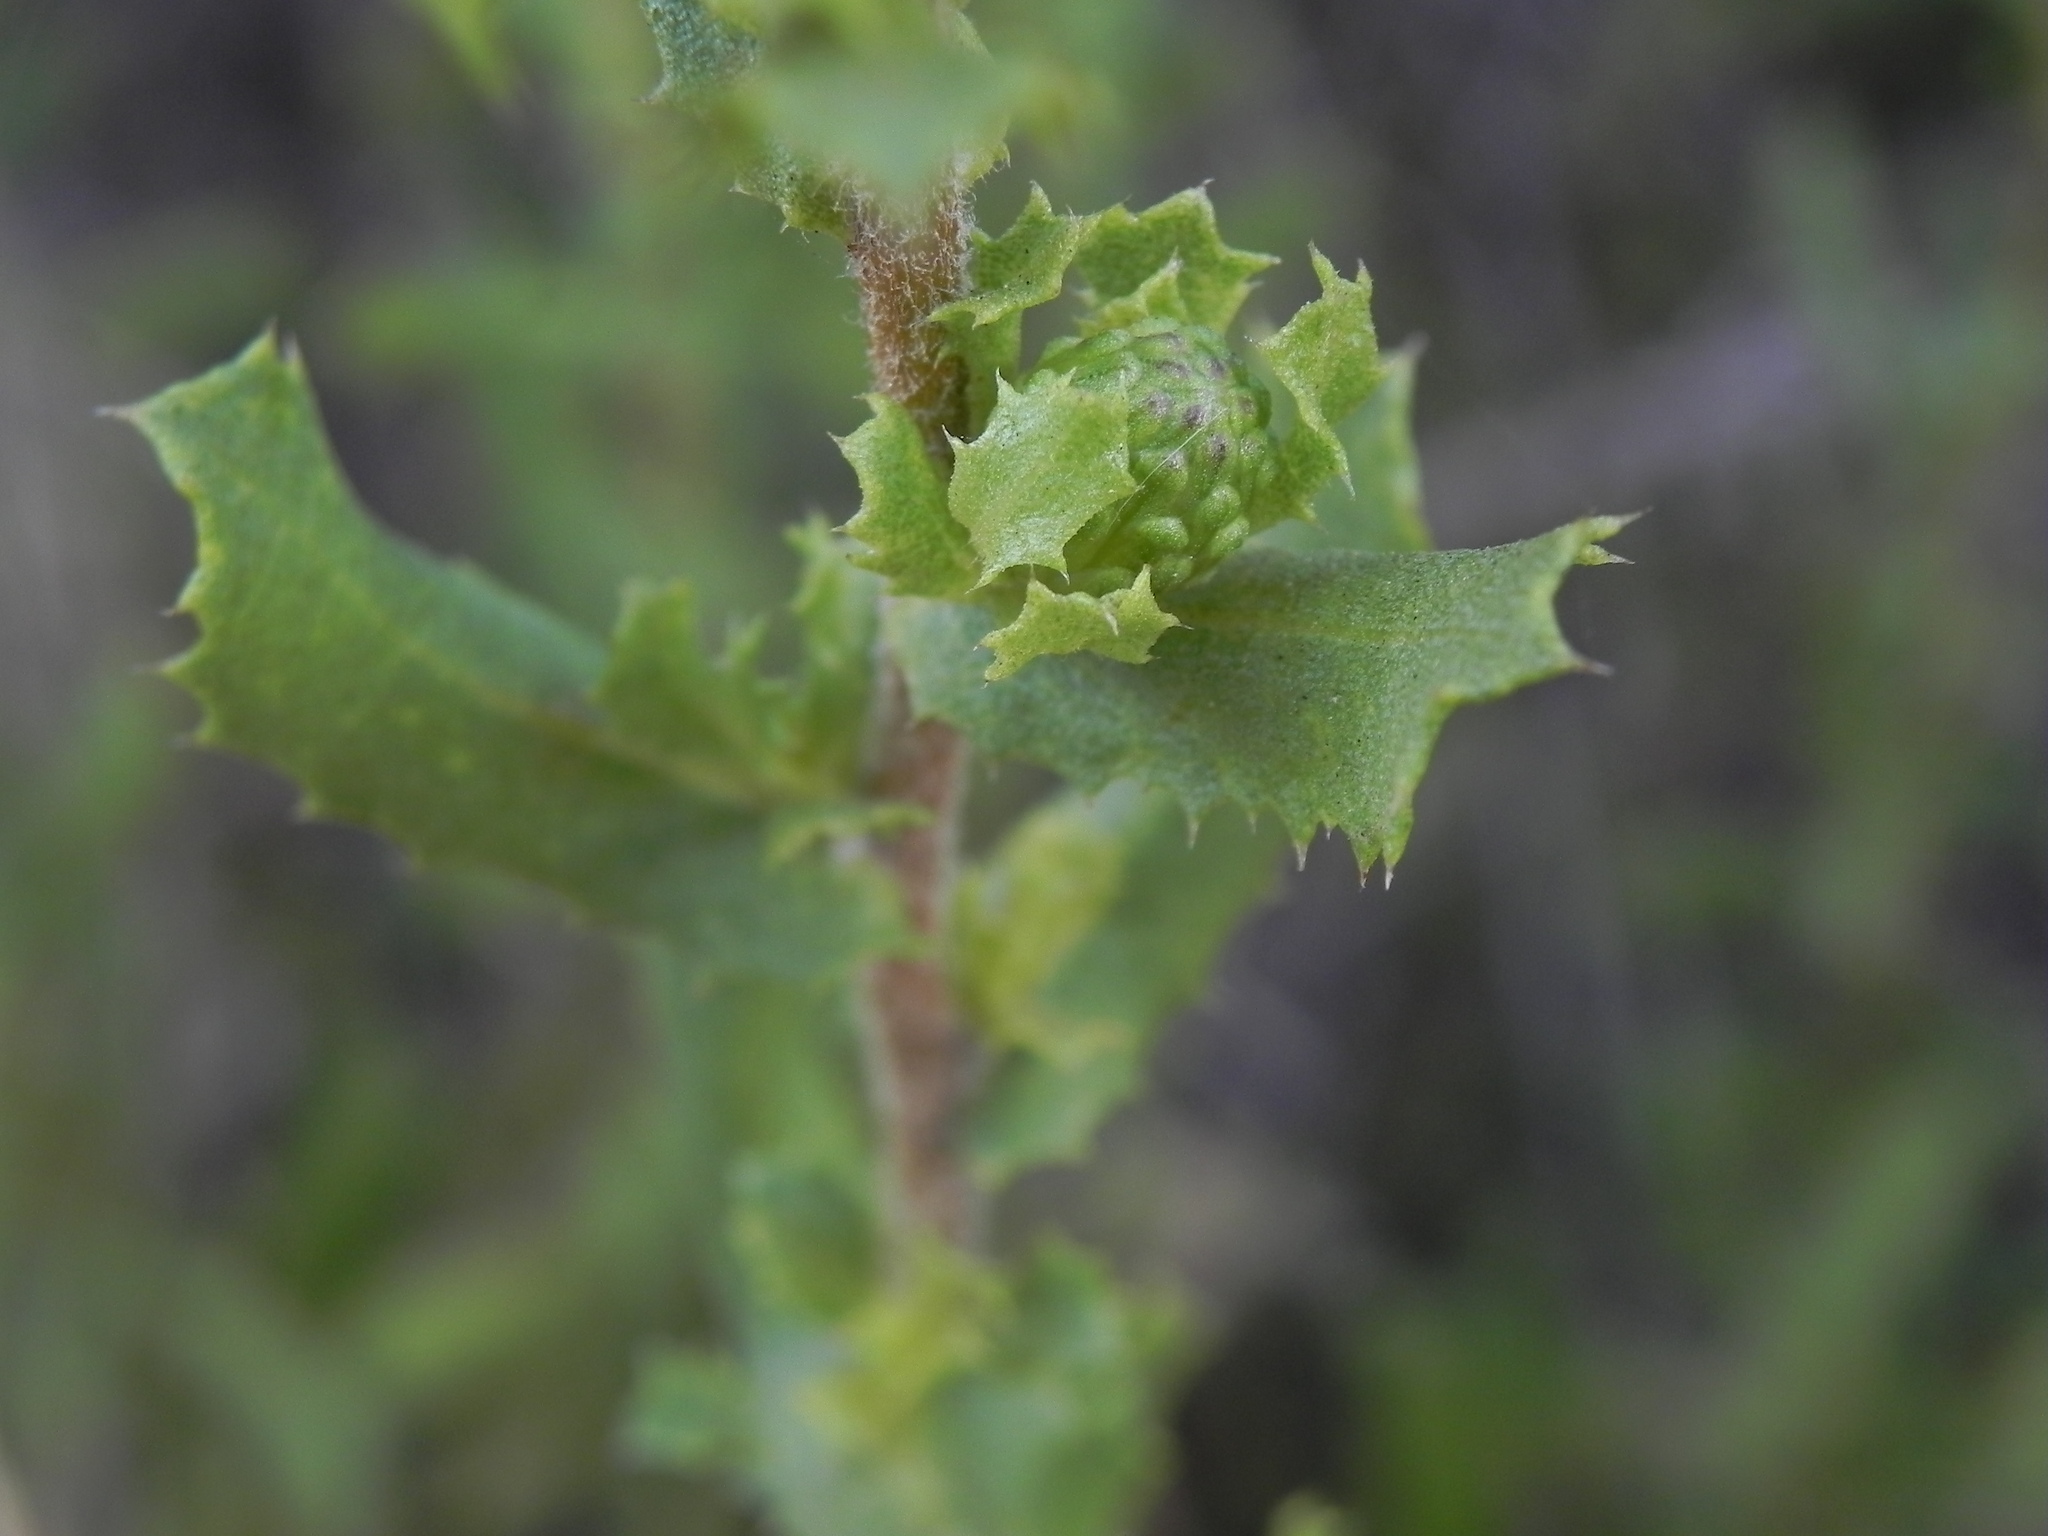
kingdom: Plantae
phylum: Tracheophyta
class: Magnoliopsida
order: Asterales
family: Asteraceae
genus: Hazardia
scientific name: Hazardia berberidis
